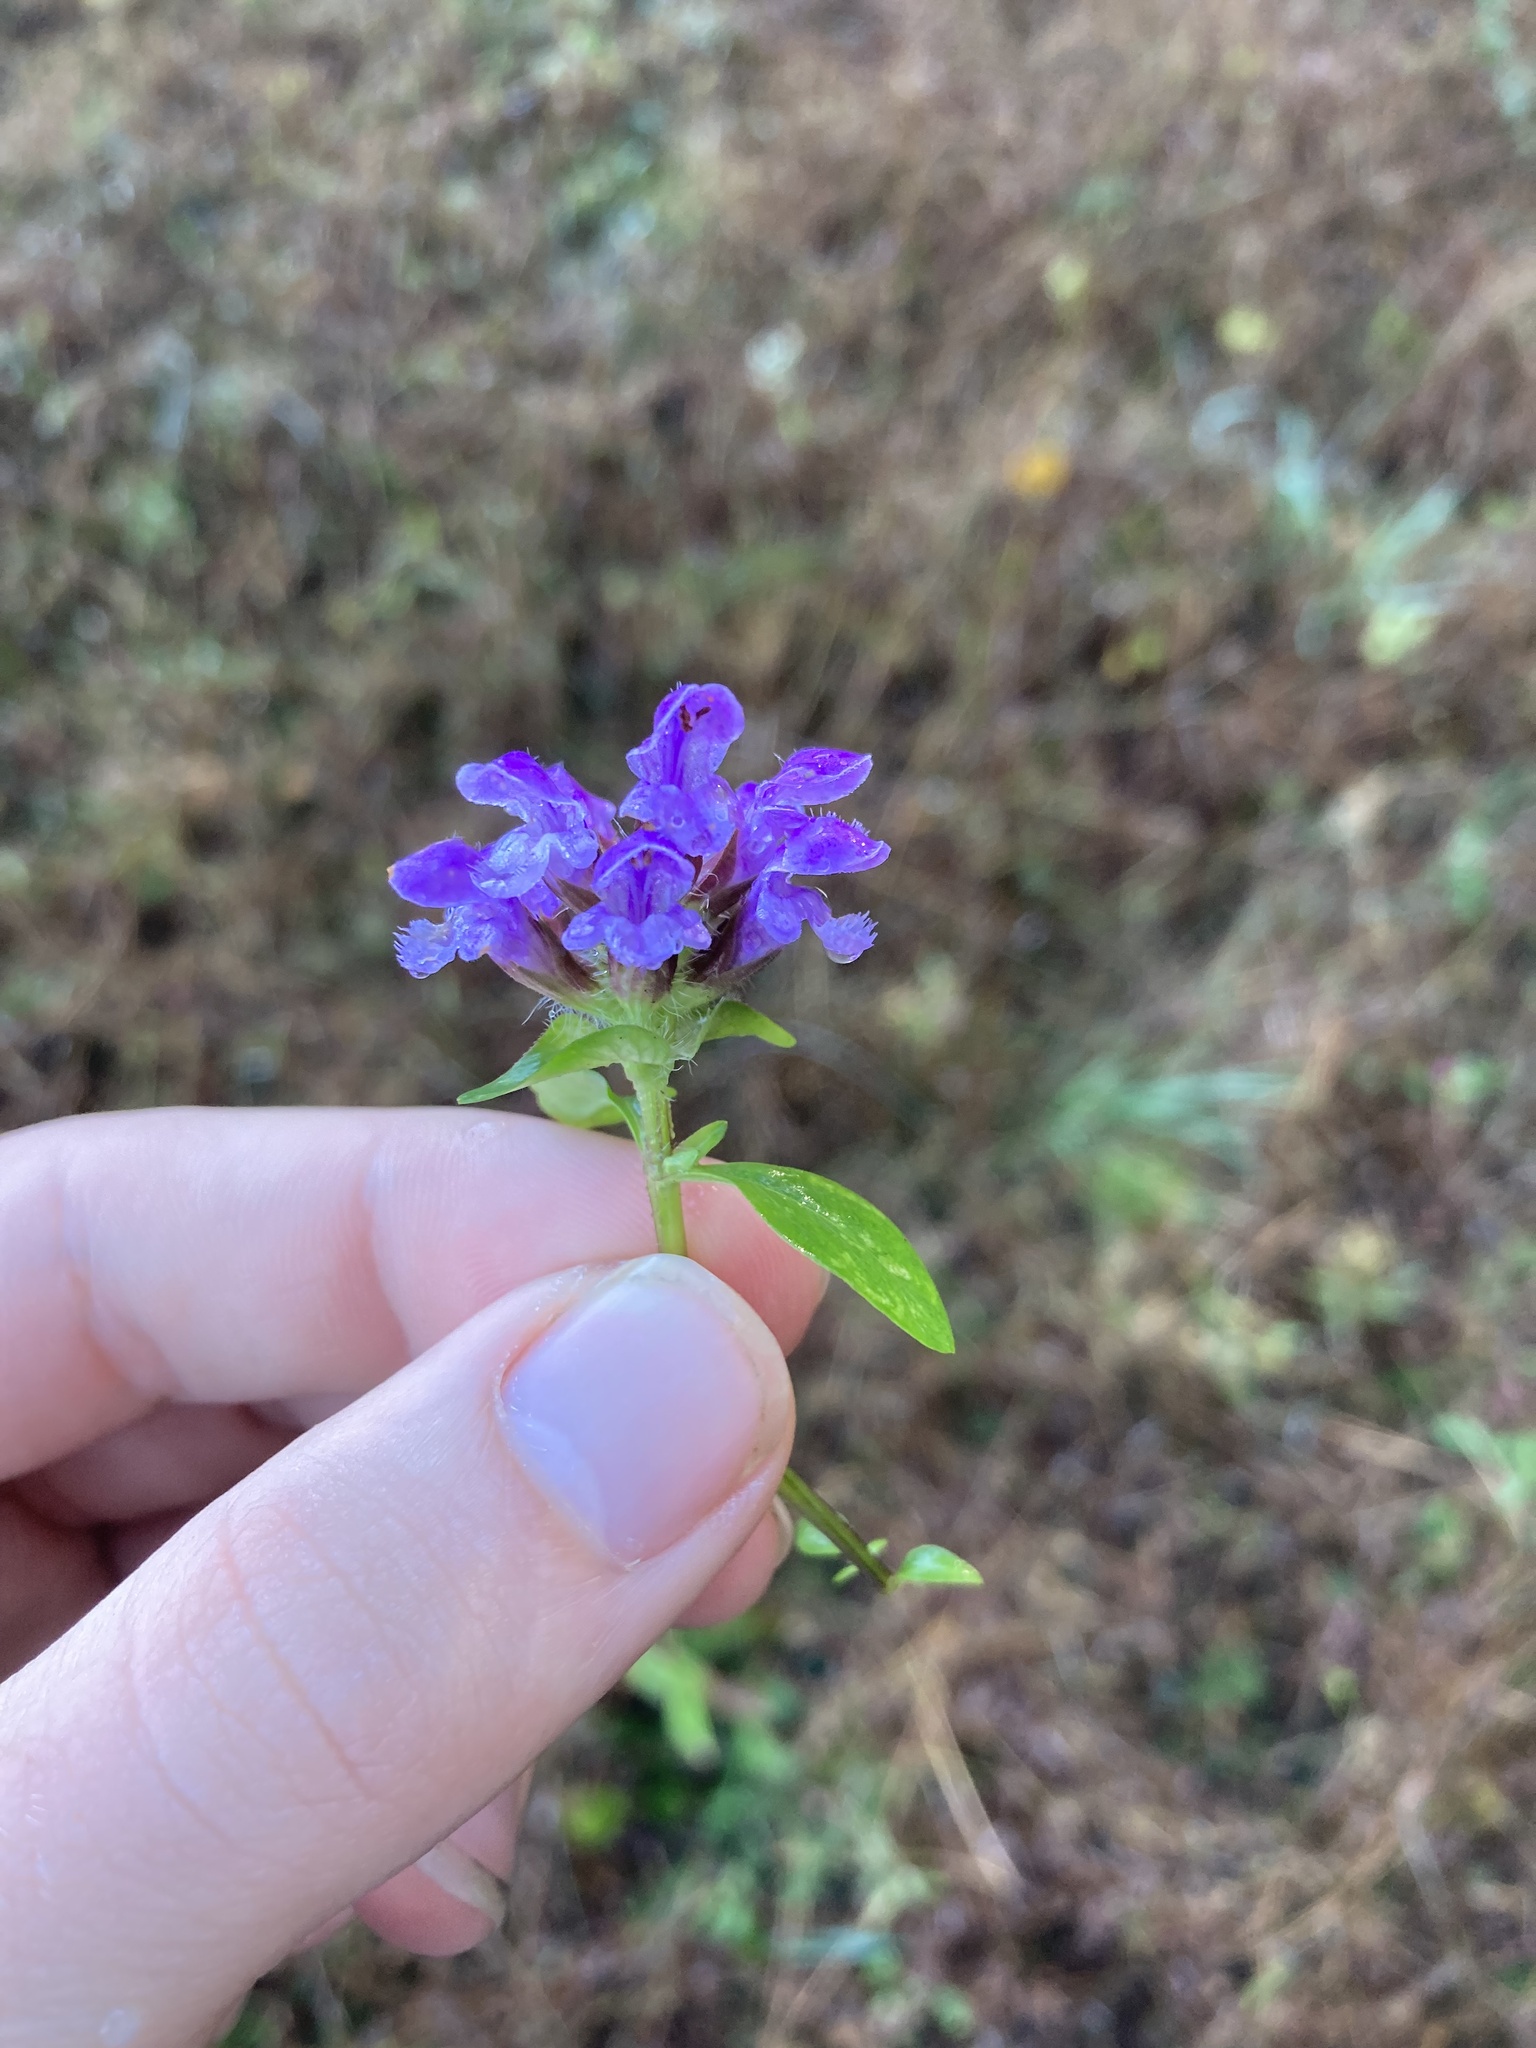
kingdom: Plantae
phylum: Tracheophyta
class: Magnoliopsida
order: Lamiales
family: Lamiaceae
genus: Prunella
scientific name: Prunella vulgaris
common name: Heal-all
